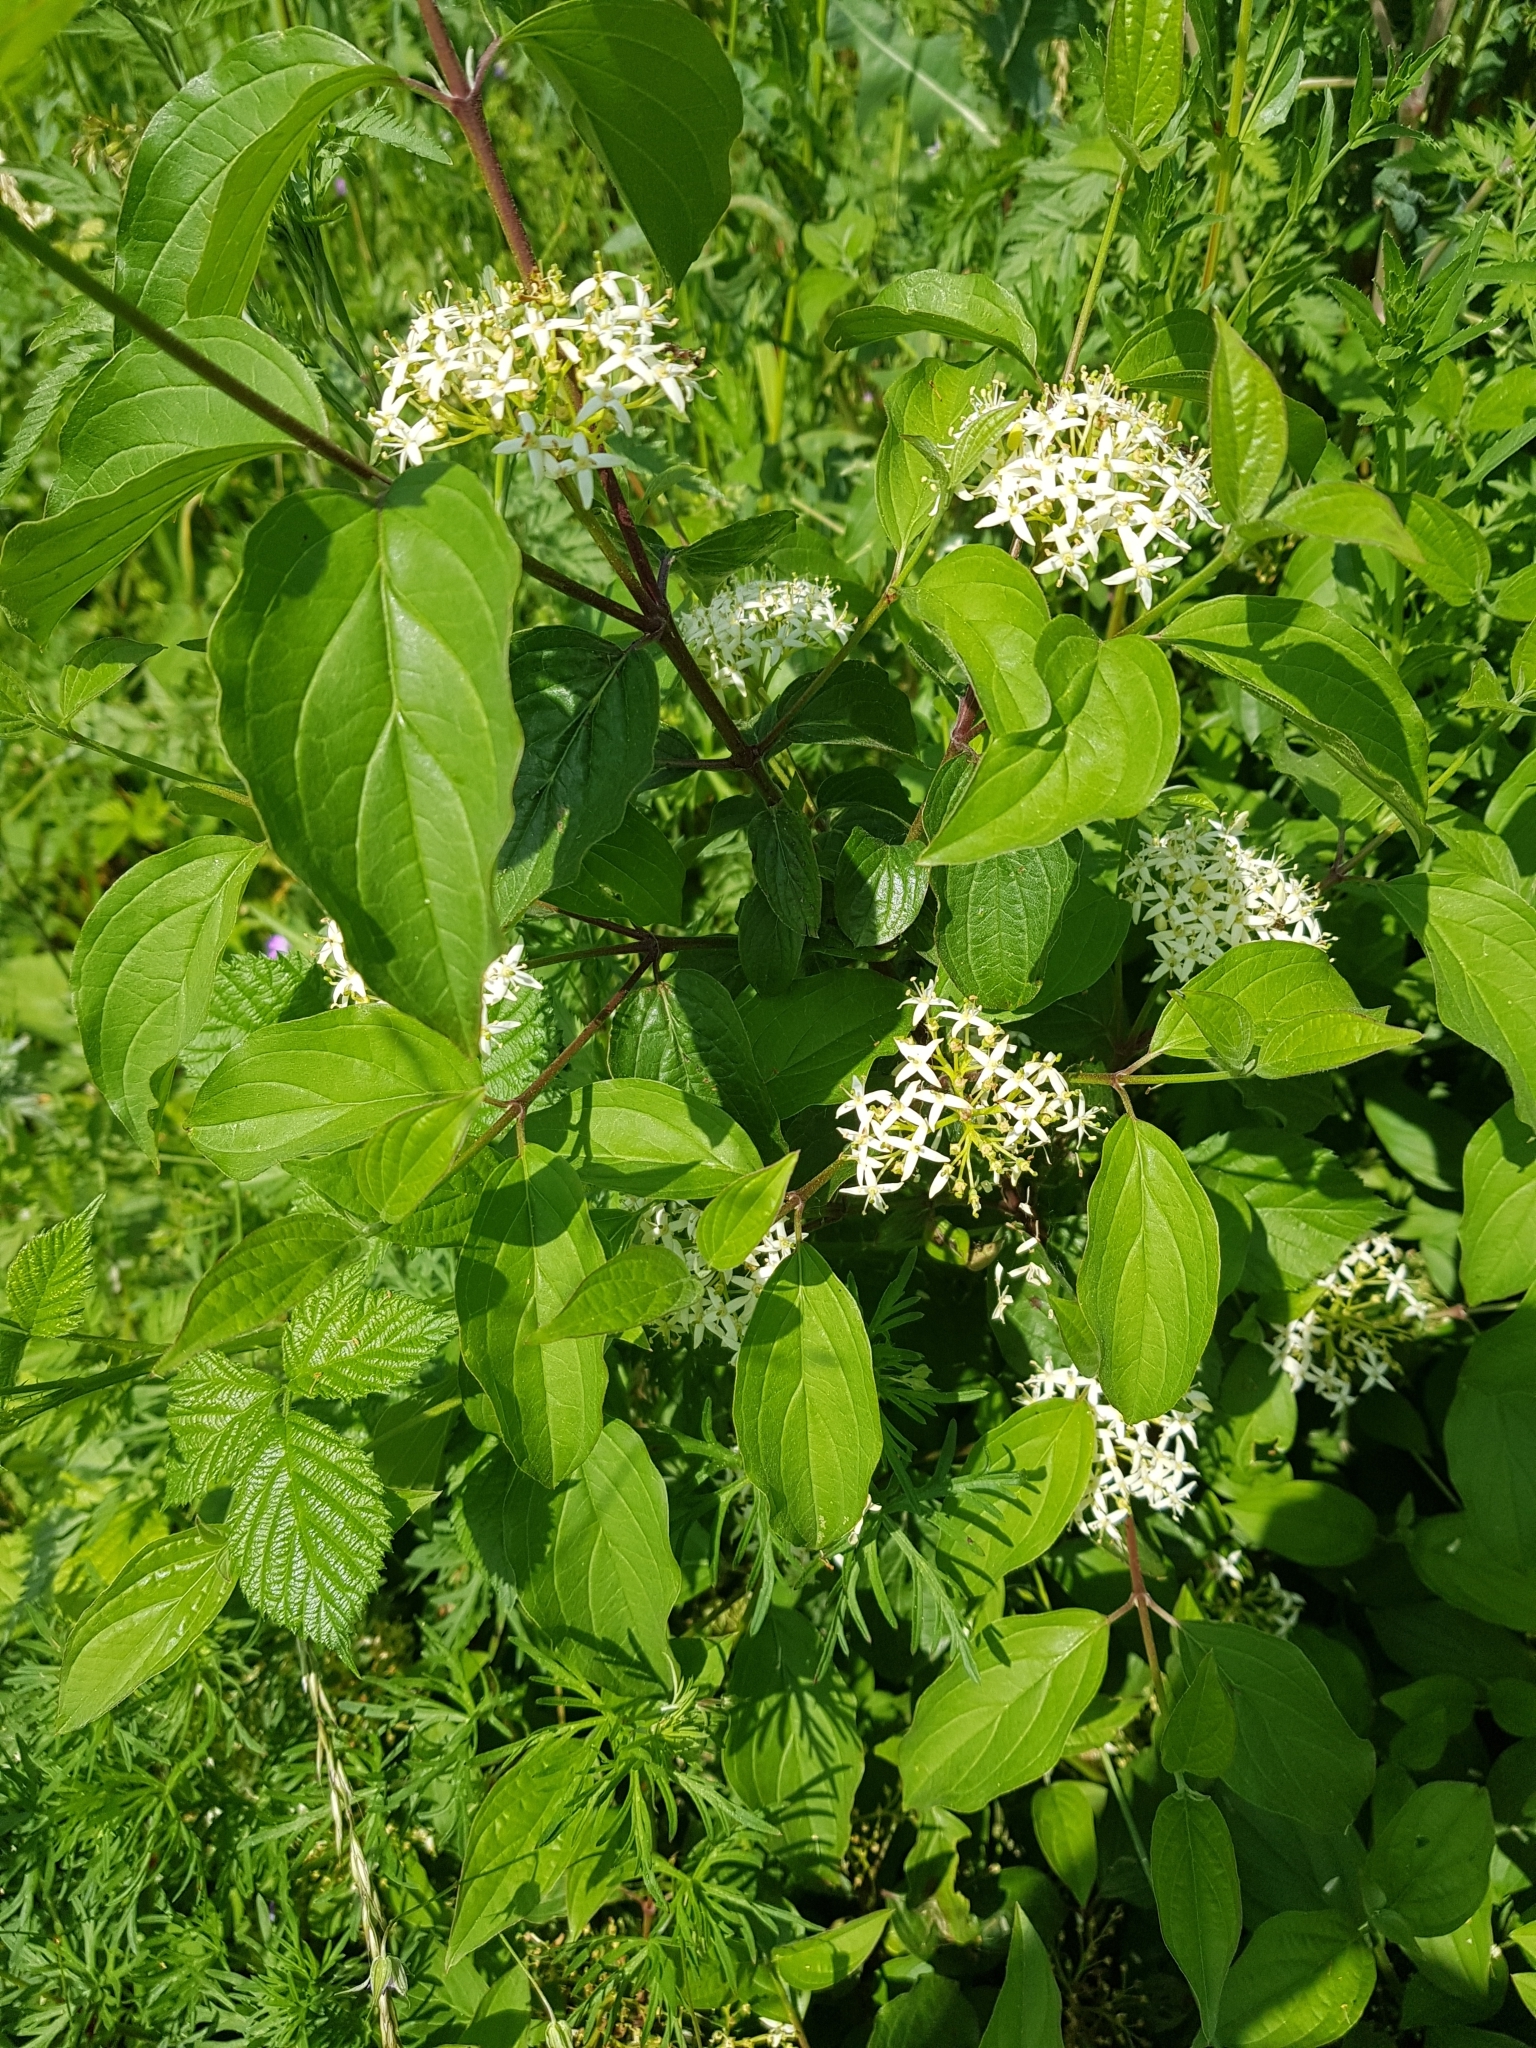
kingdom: Plantae
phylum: Tracheophyta
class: Magnoliopsida
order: Cornales
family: Cornaceae
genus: Cornus
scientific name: Cornus sanguinea
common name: Dogwood
